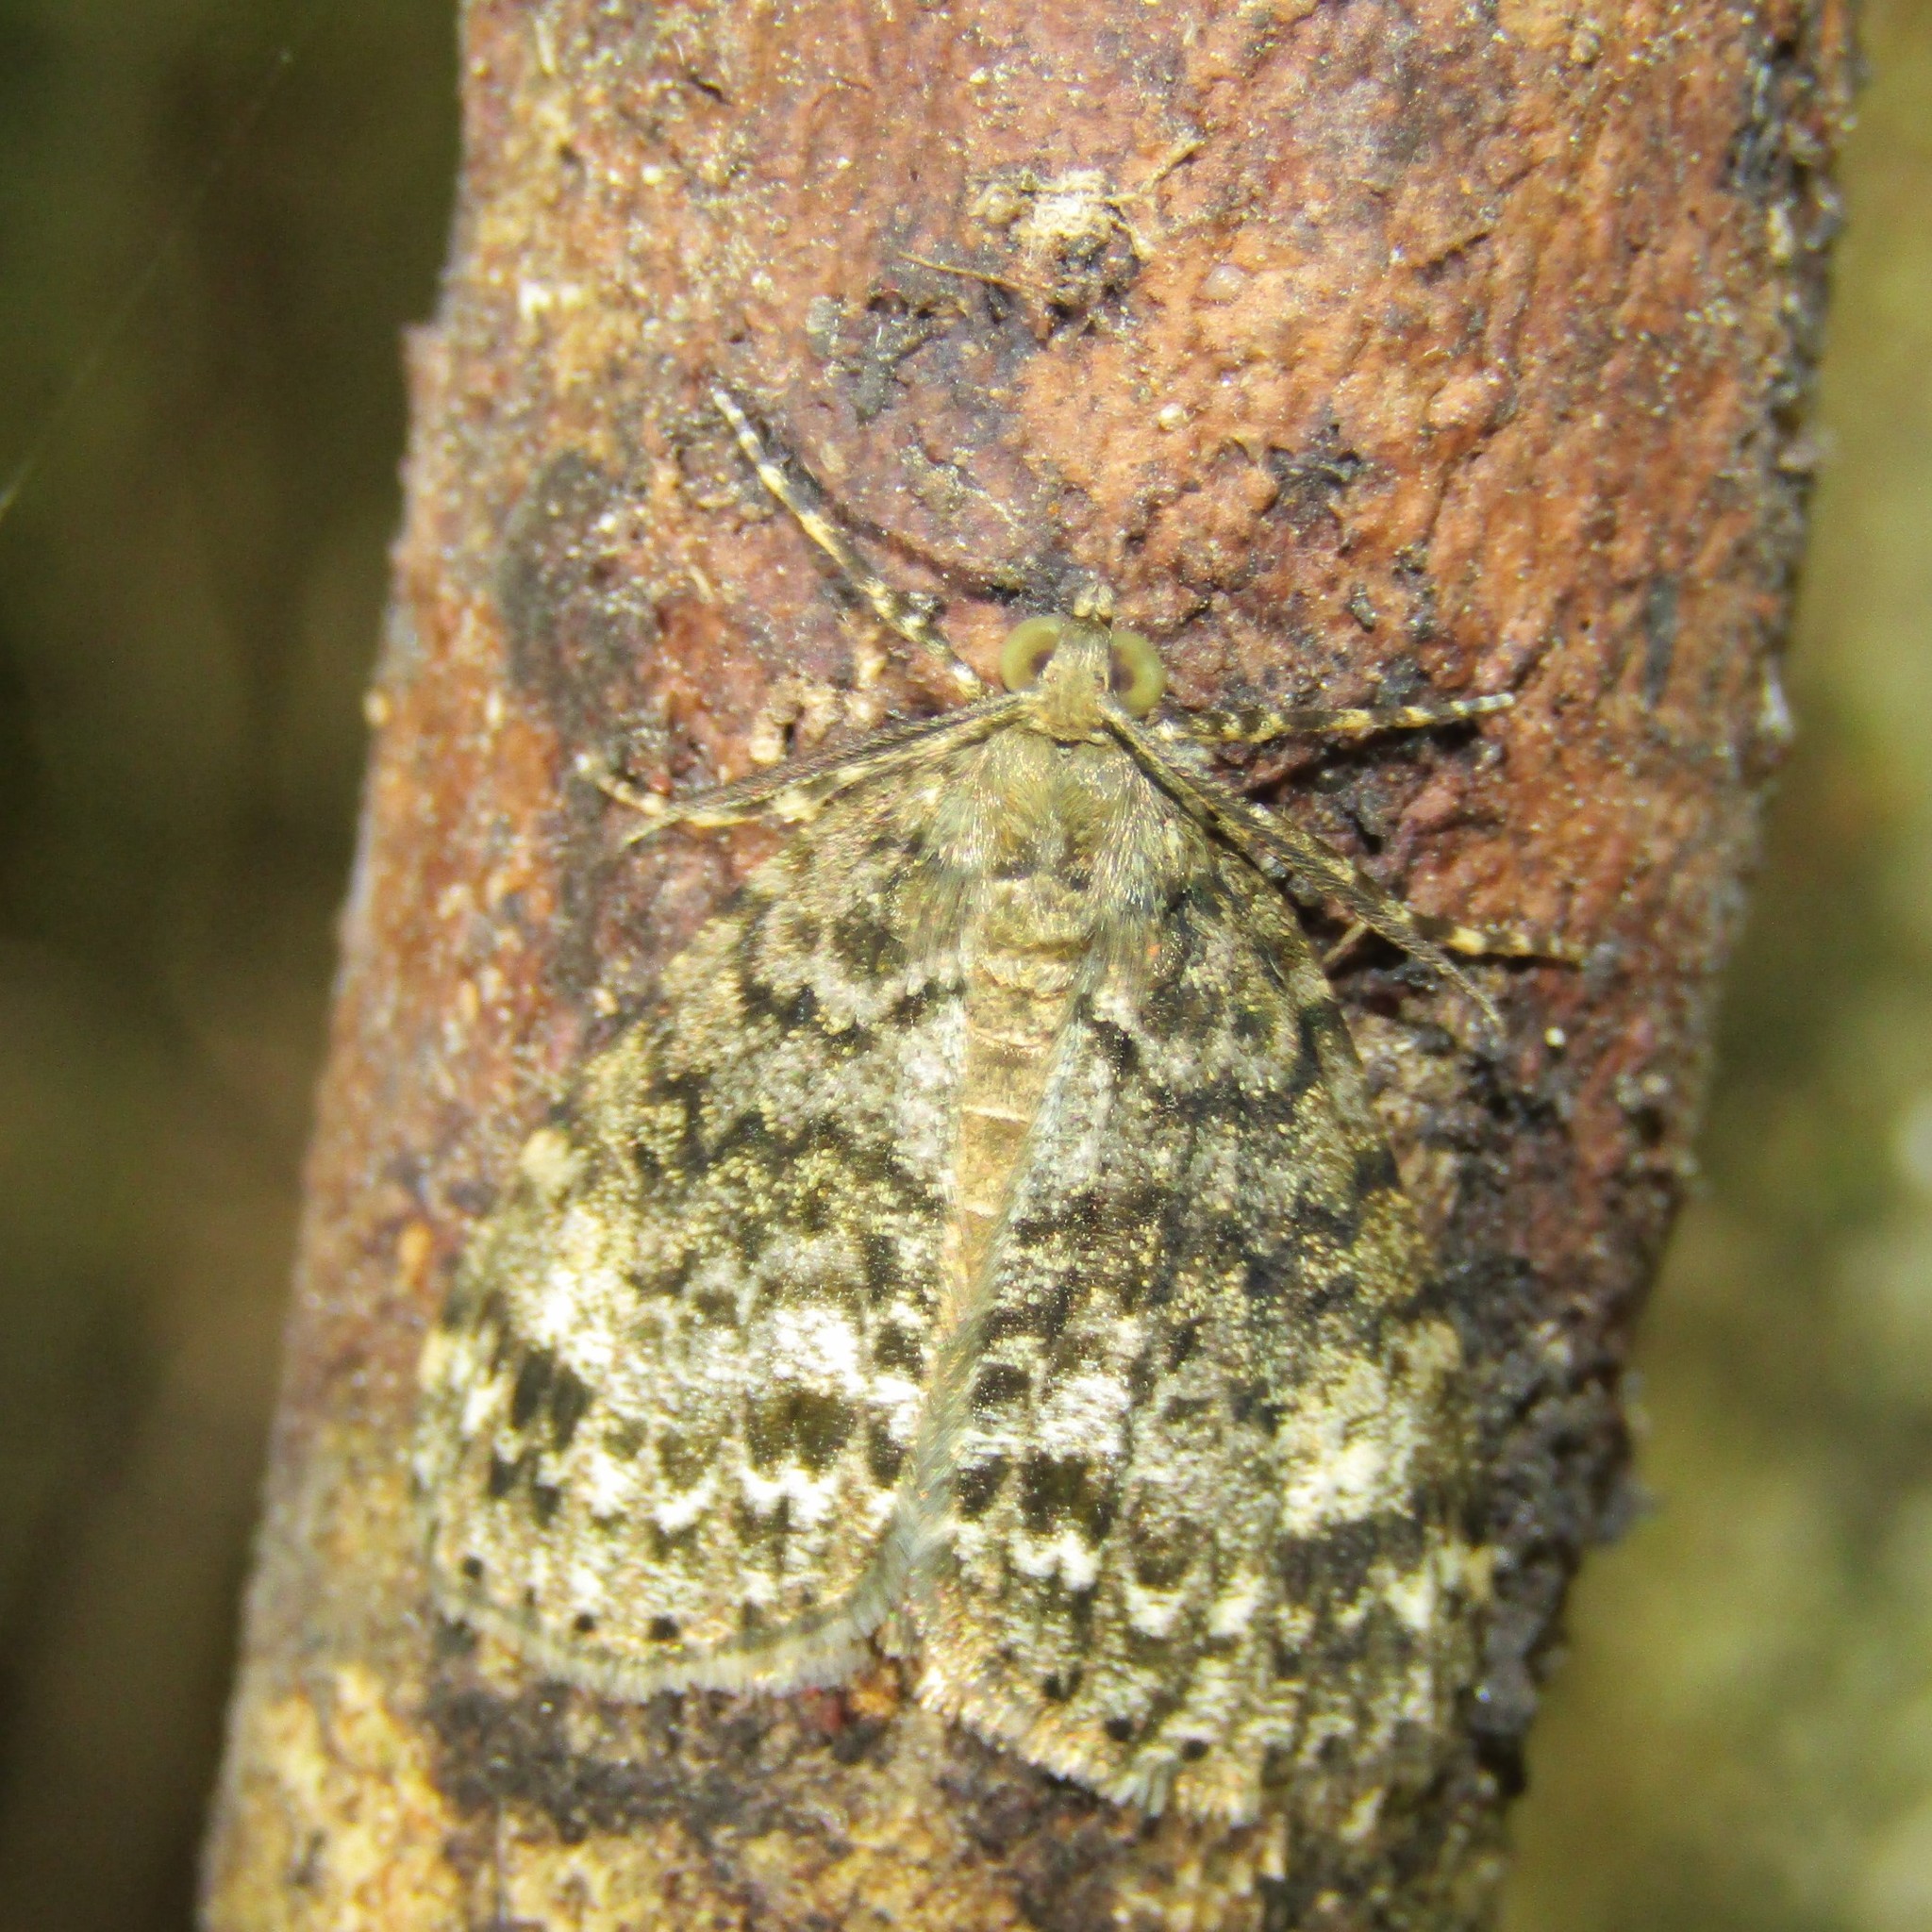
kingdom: Animalia
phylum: Arthropoda
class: Insecta
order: Lepidoptera
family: Geometridae
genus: Pseudocoremia
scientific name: Pseudocoremia indistincta
